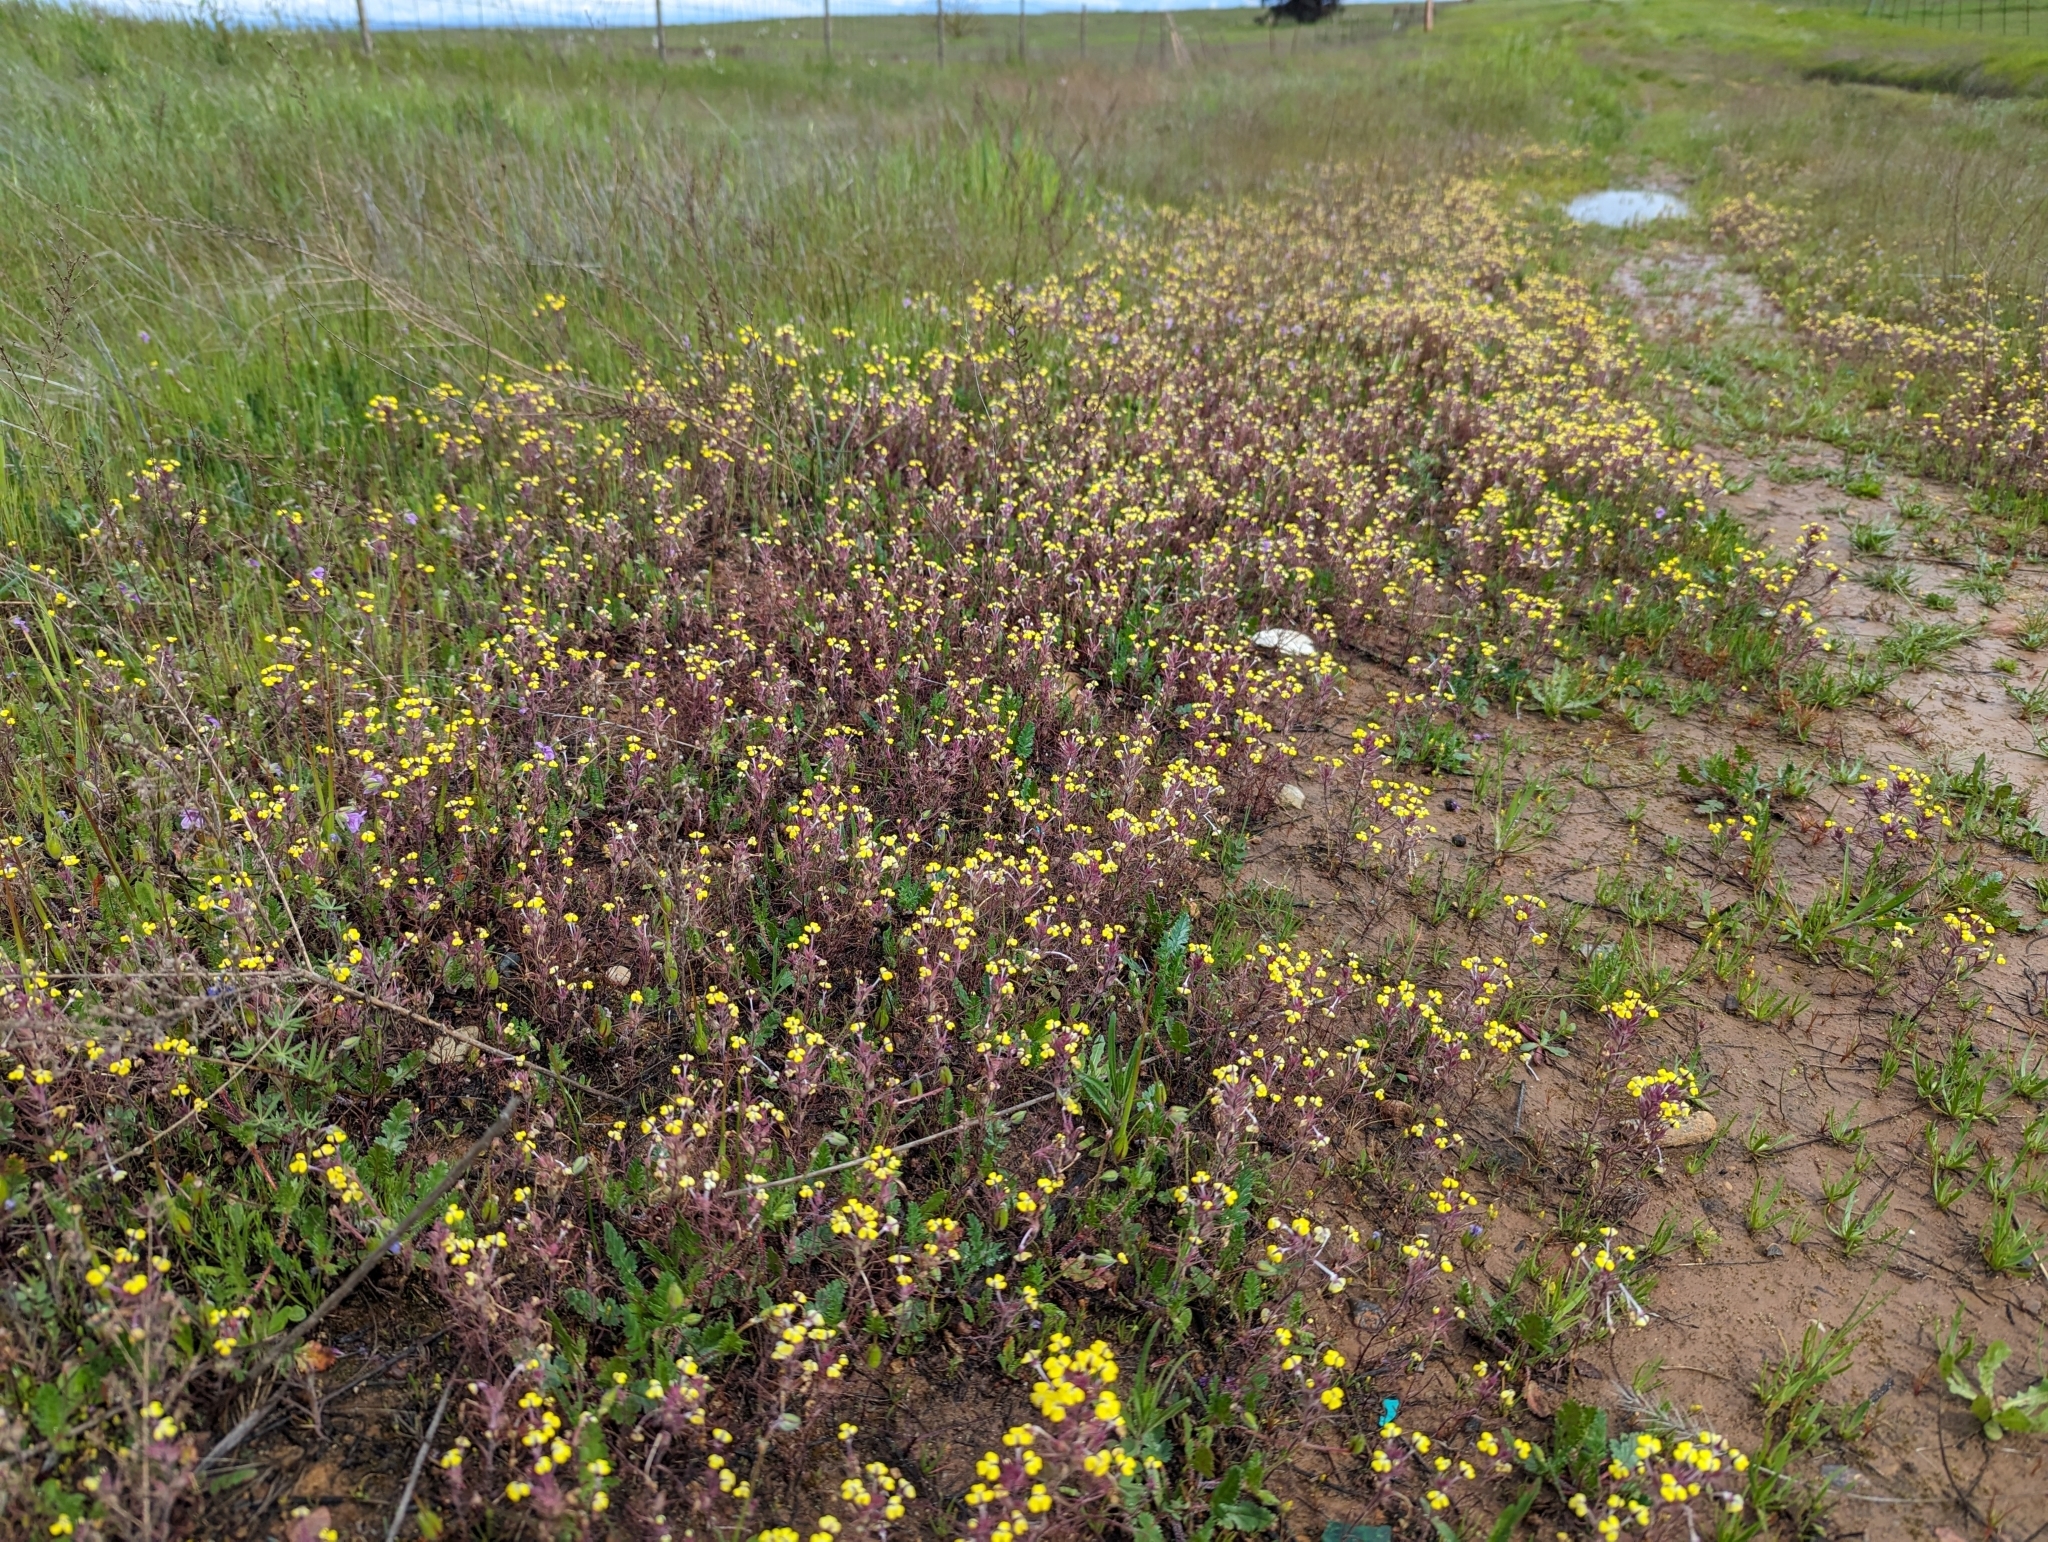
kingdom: Plantae
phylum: Tracheophyta
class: Magnoliopsida
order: Lamiales
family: Orobanchaceae
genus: Triphysaria
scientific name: Triphysaria eriantha
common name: Johnny-tuck
